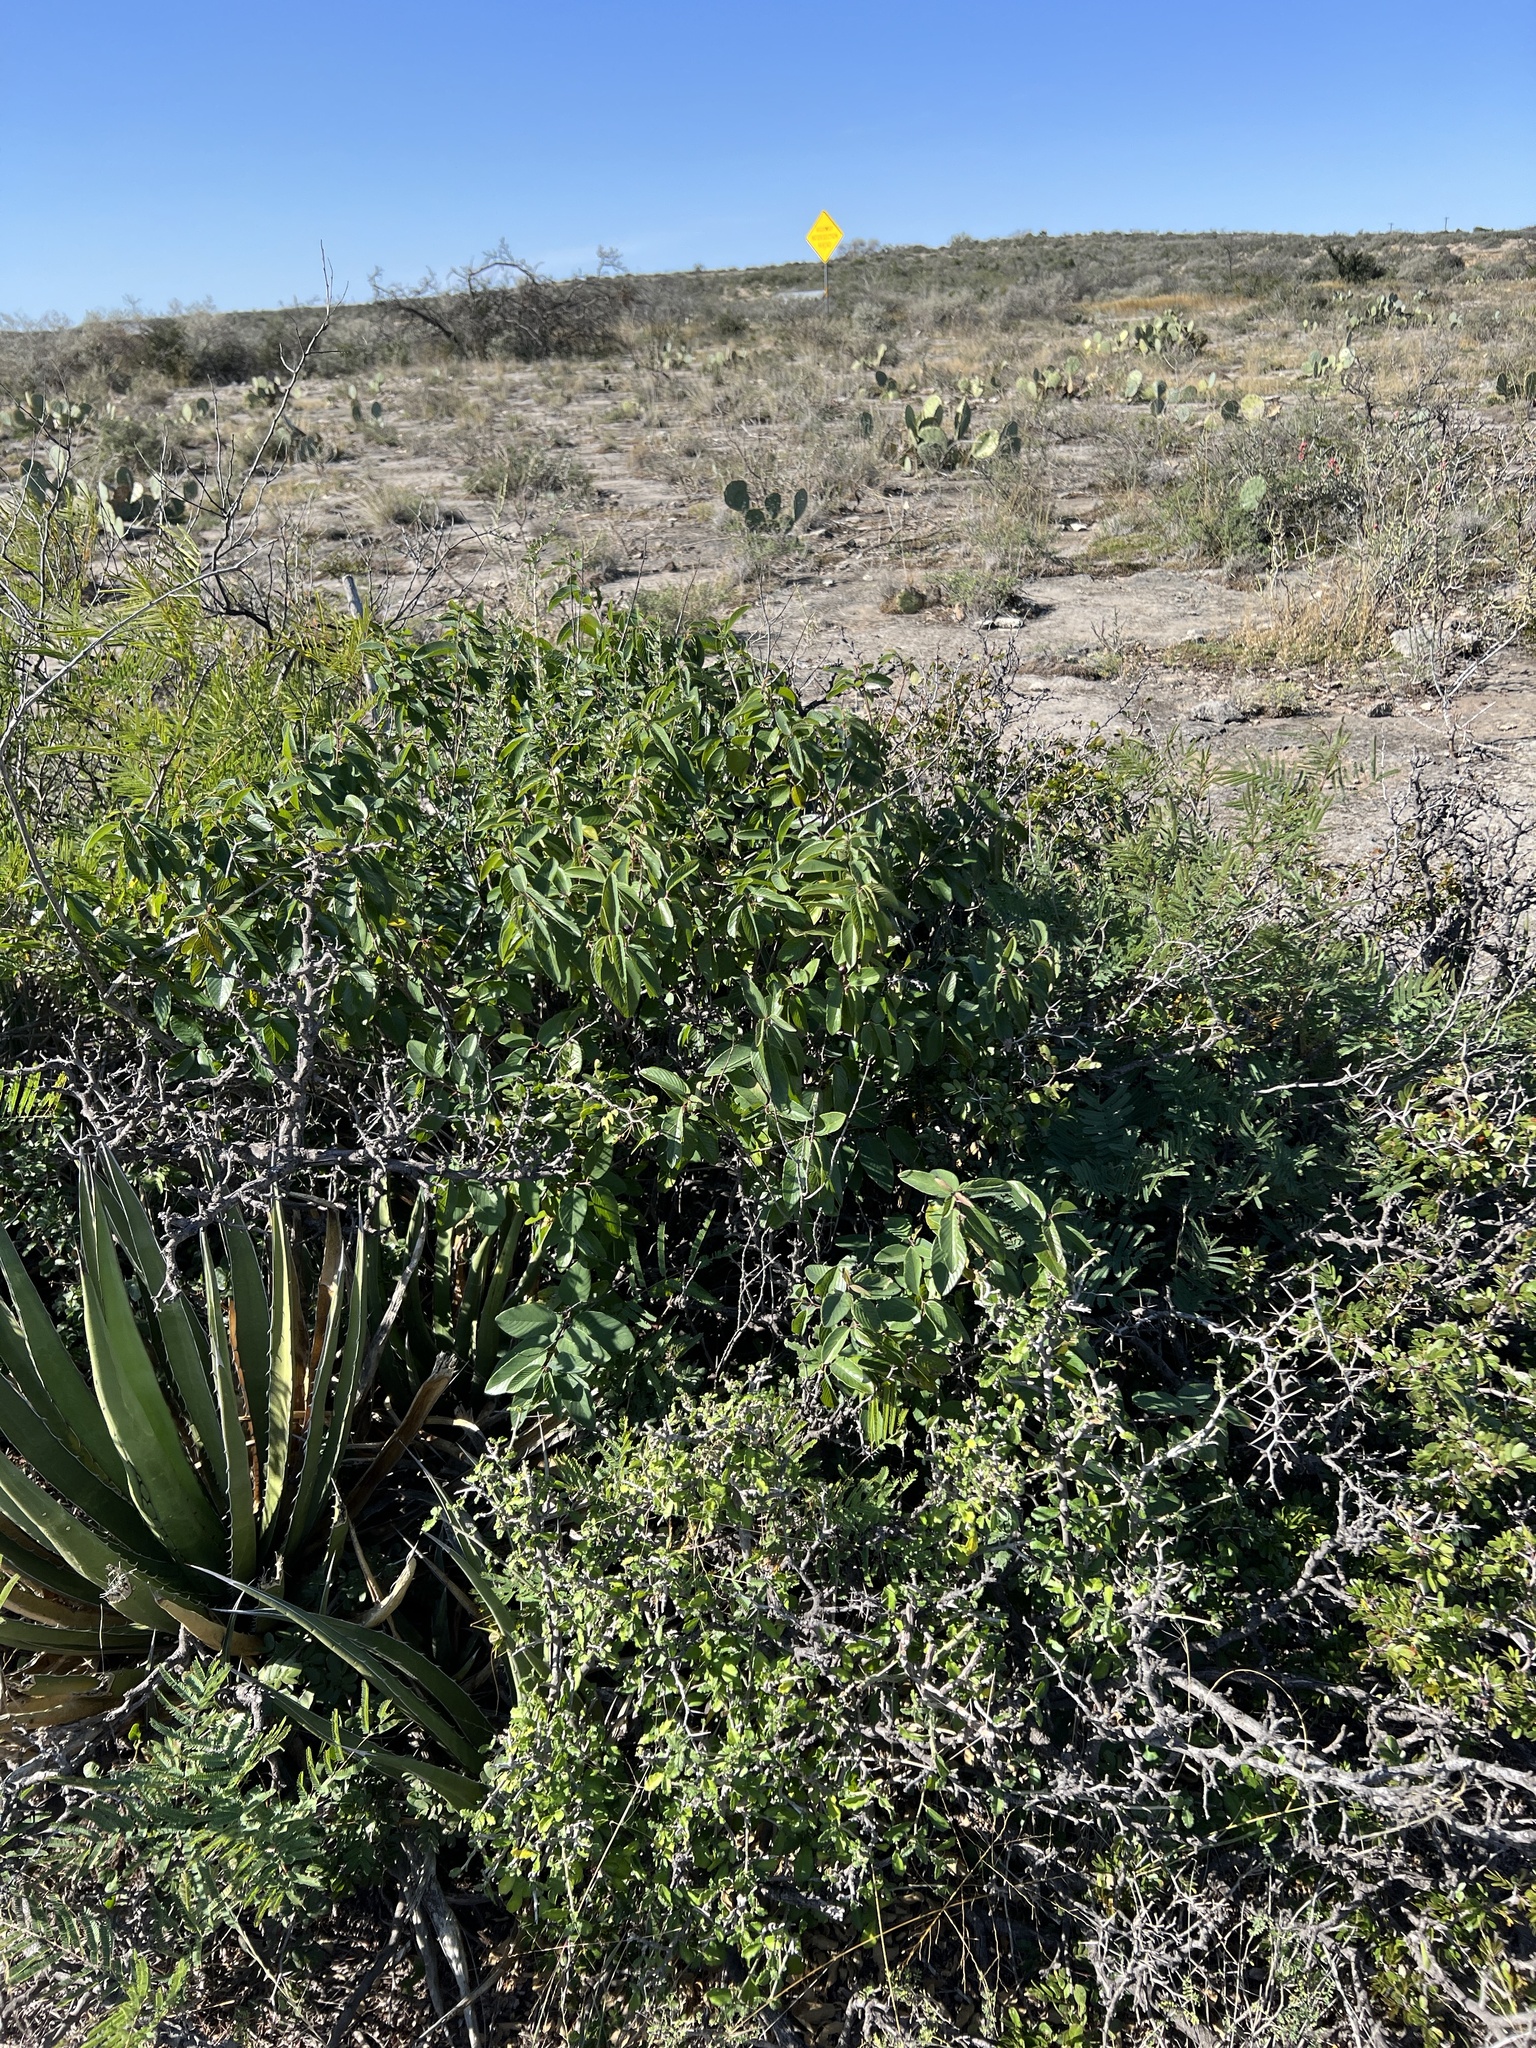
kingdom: Plantae
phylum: Tracheophyta
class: Magnoliopsida
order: Rosales
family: Rhamnaceae
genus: Karwinskia
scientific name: Karwinskia humboldtiana
